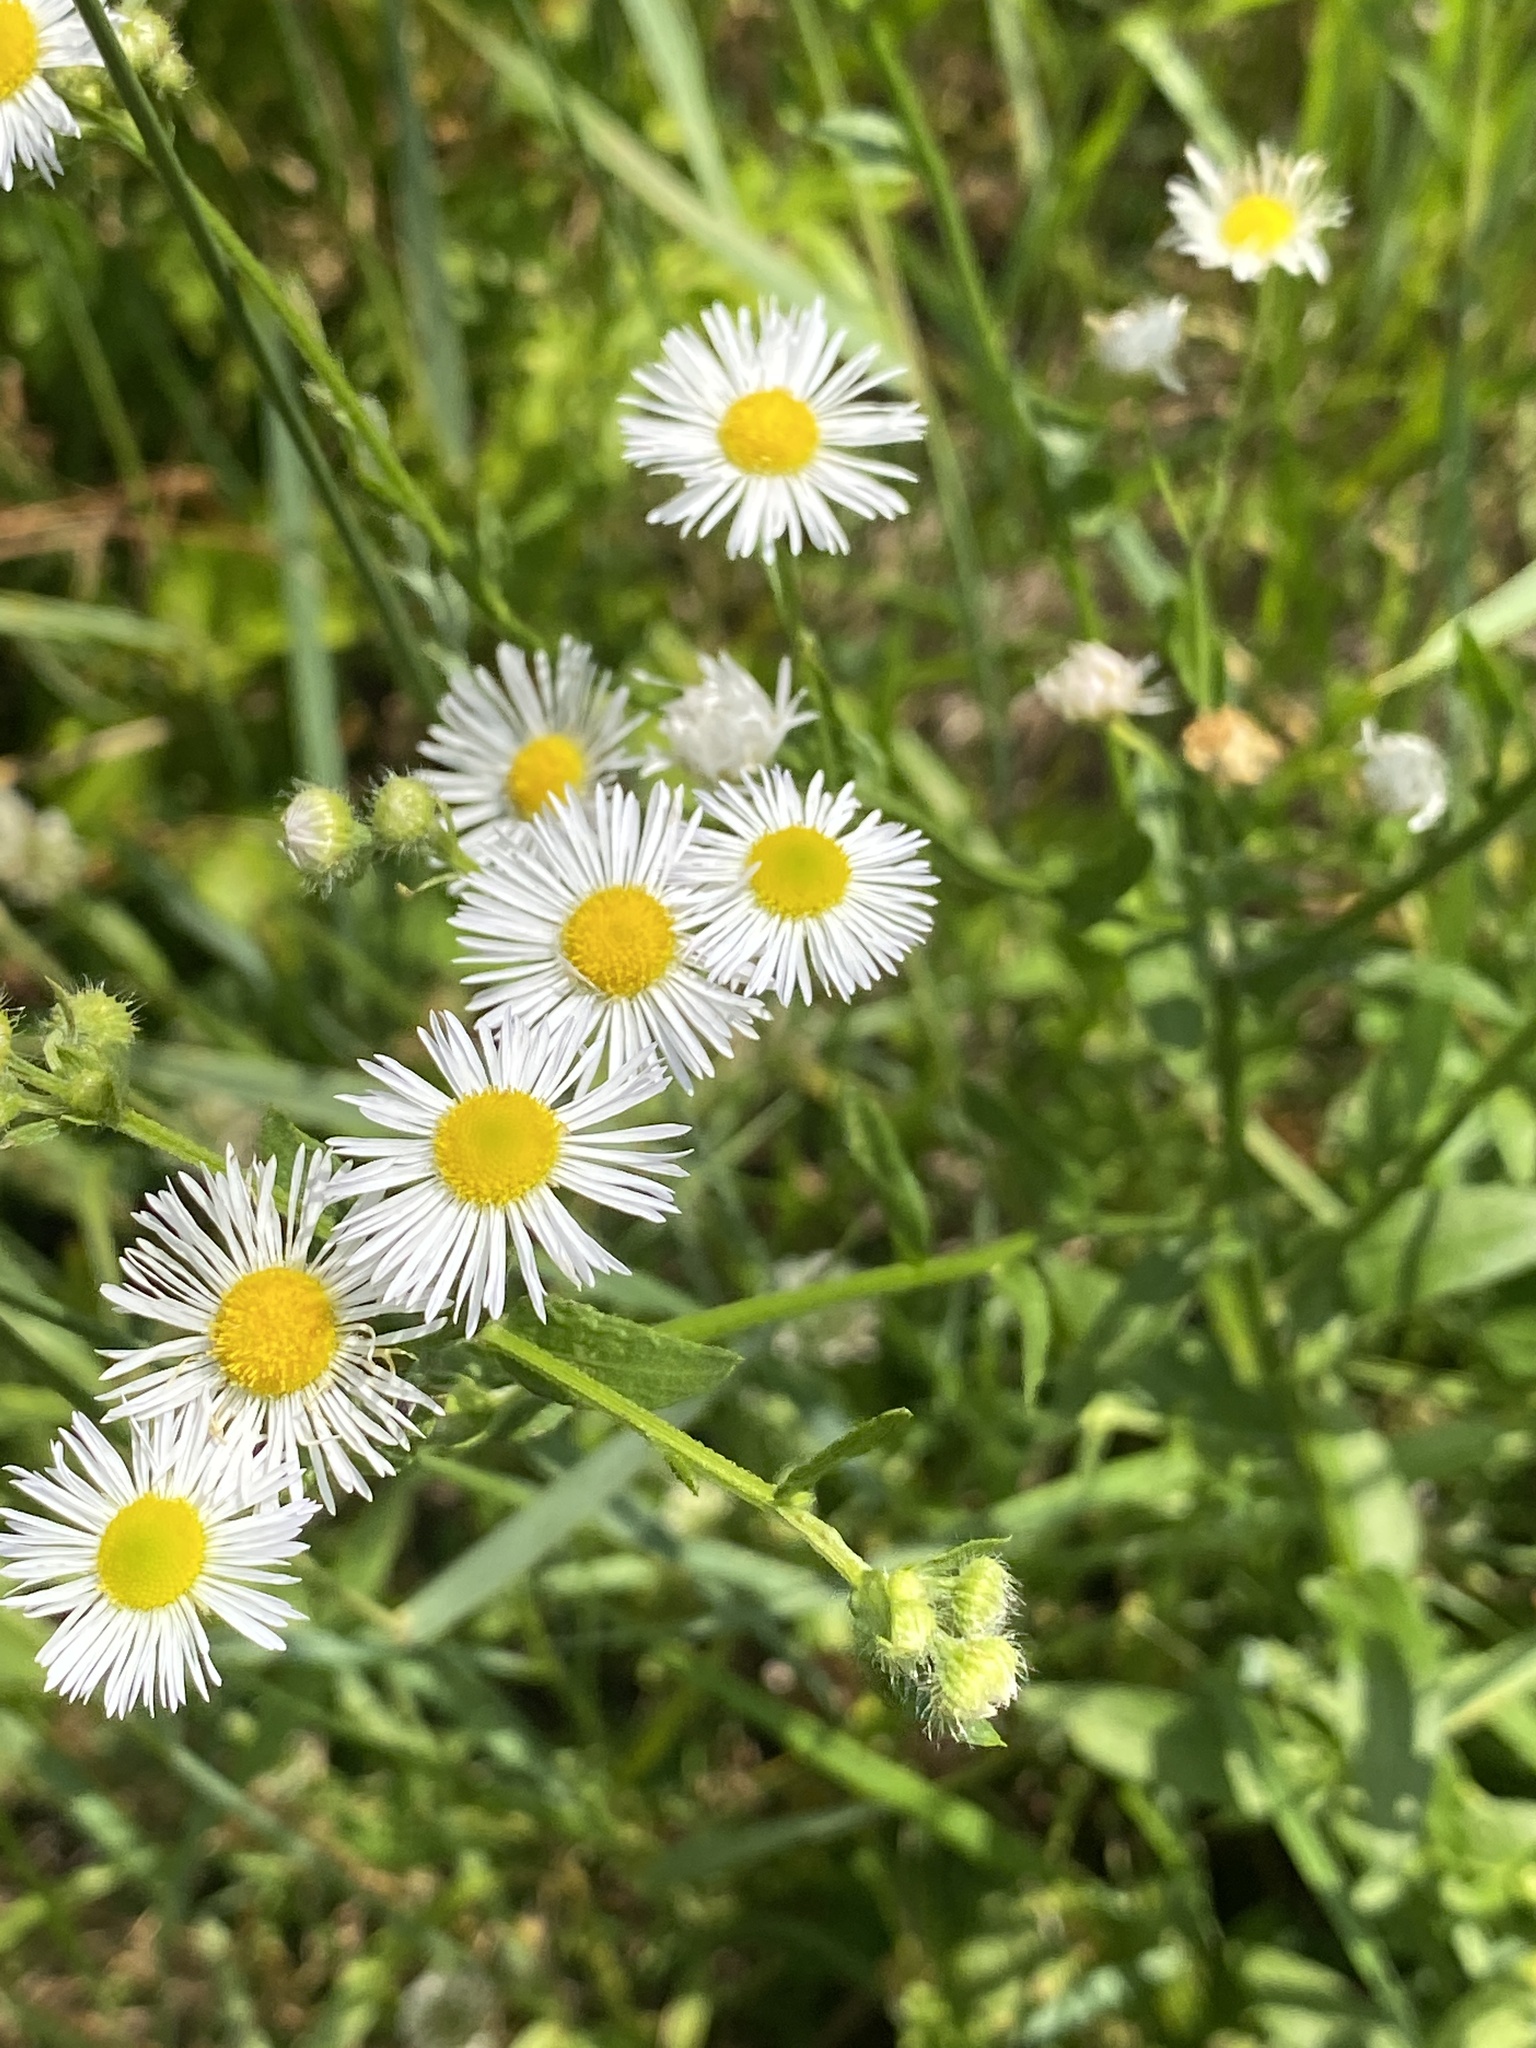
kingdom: Plantae
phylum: Tracheophyta
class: Magnoliopsida
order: Asterales
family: Asteraceae
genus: Erigeron
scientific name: Erigeron strigosus
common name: Common eastern fleabane
